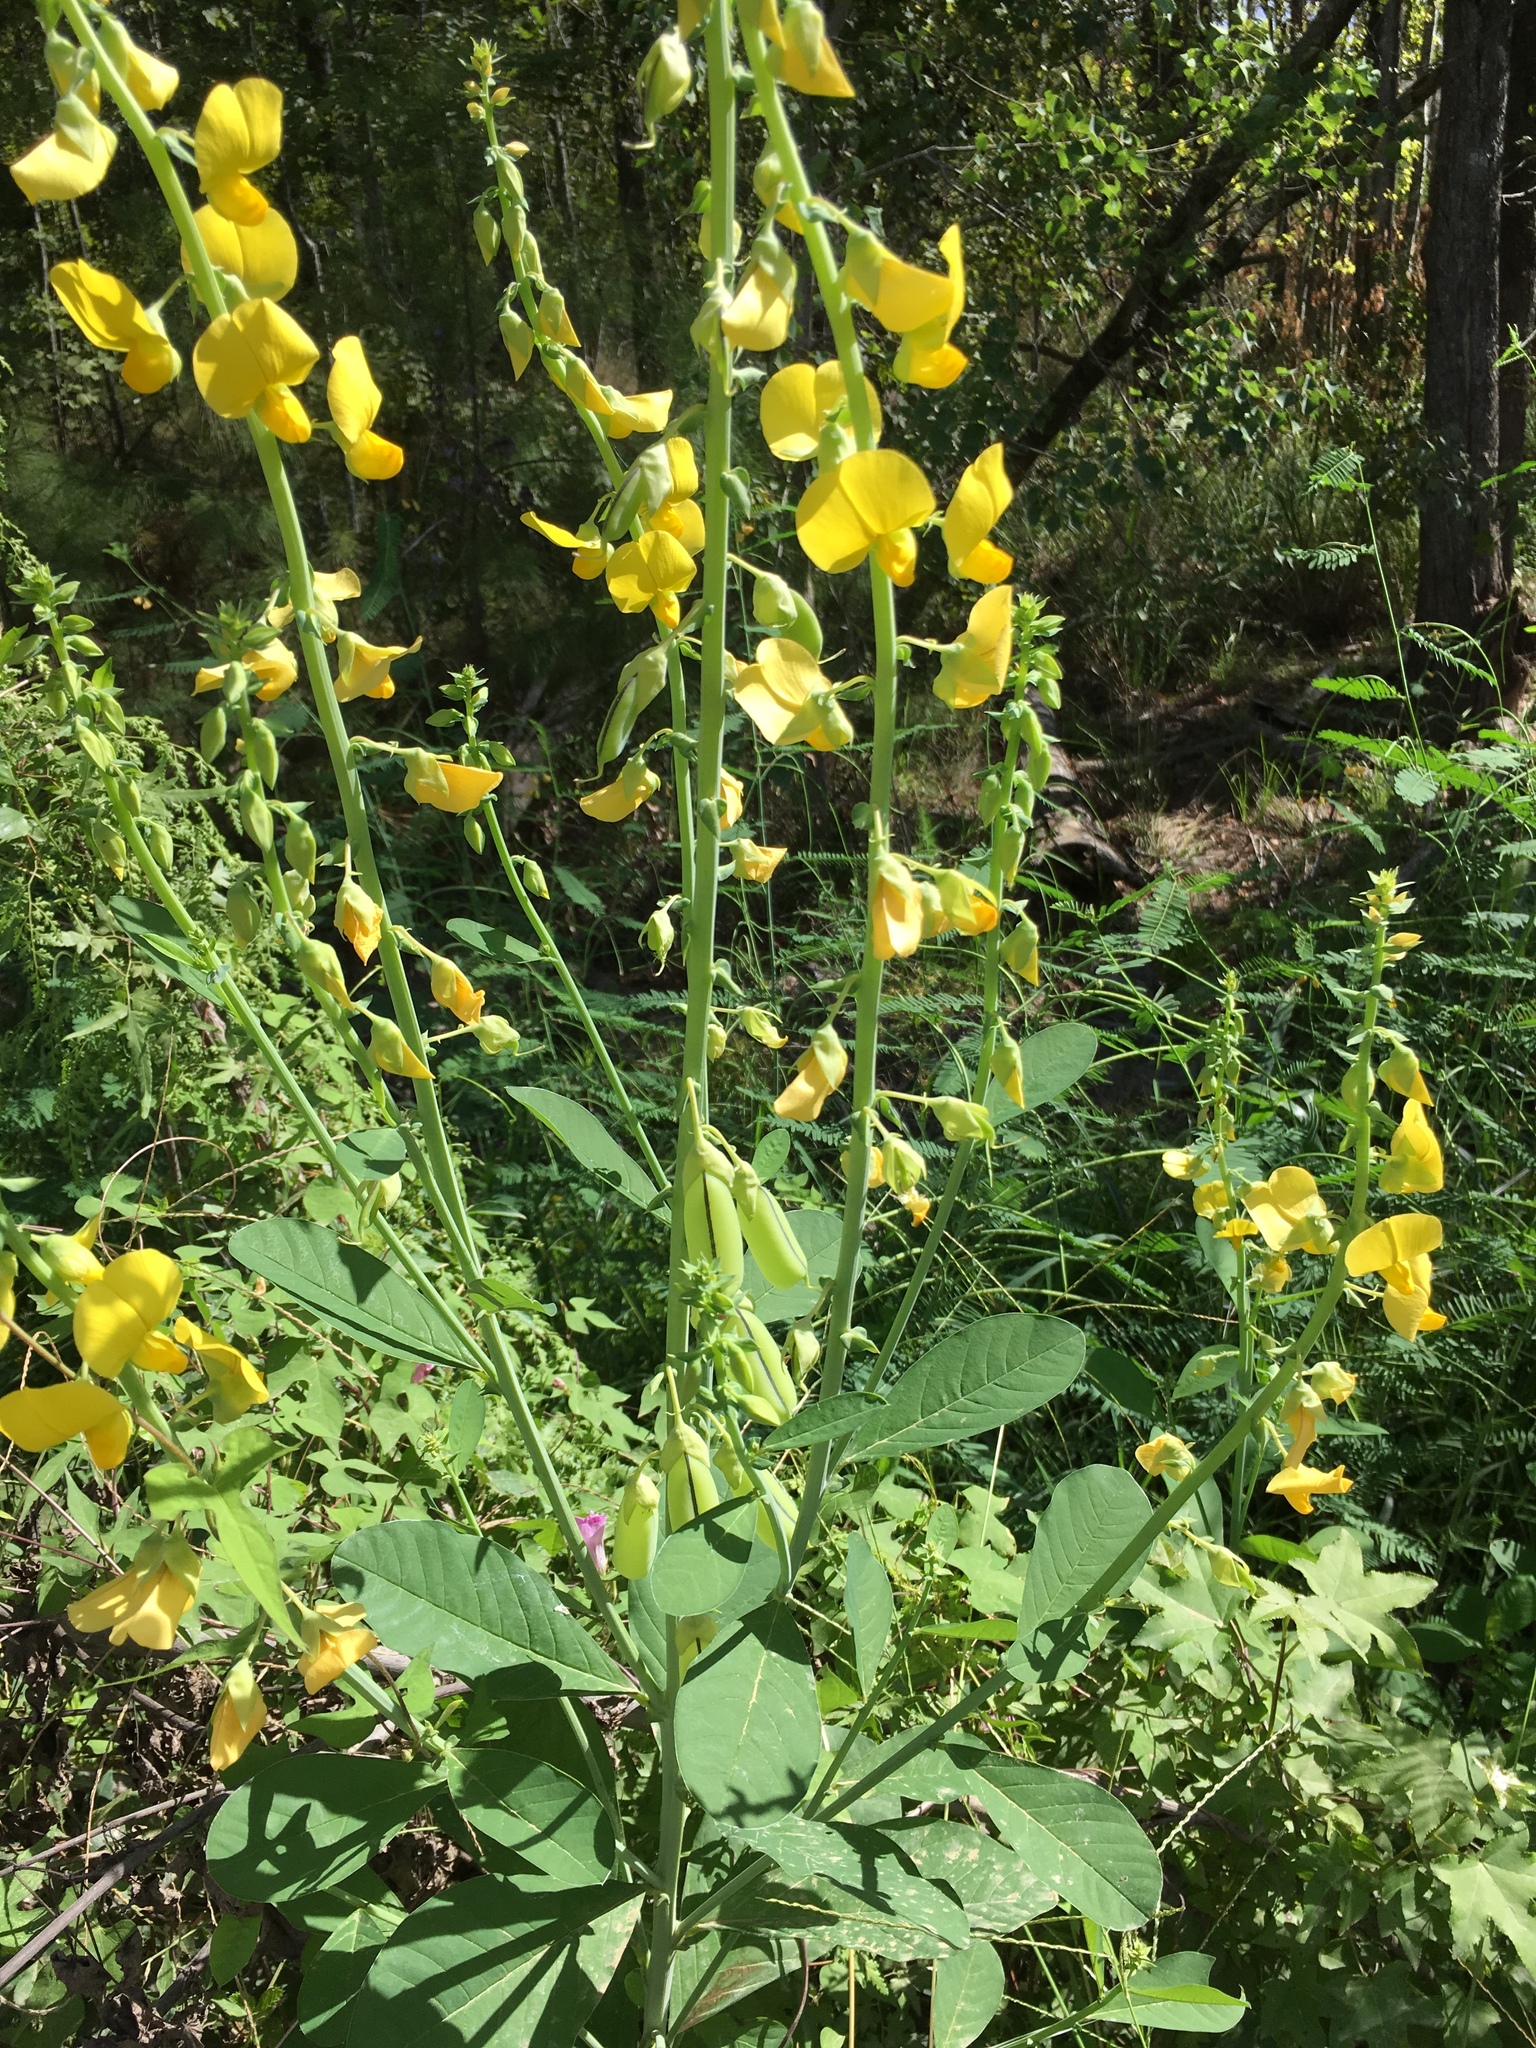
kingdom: Plantae
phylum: Tracheophyta
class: Magnoliopsida
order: Fabales
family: Fabaceae
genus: Crotalaria
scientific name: Crotalaria spectabilis
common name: Showy rattlebox
